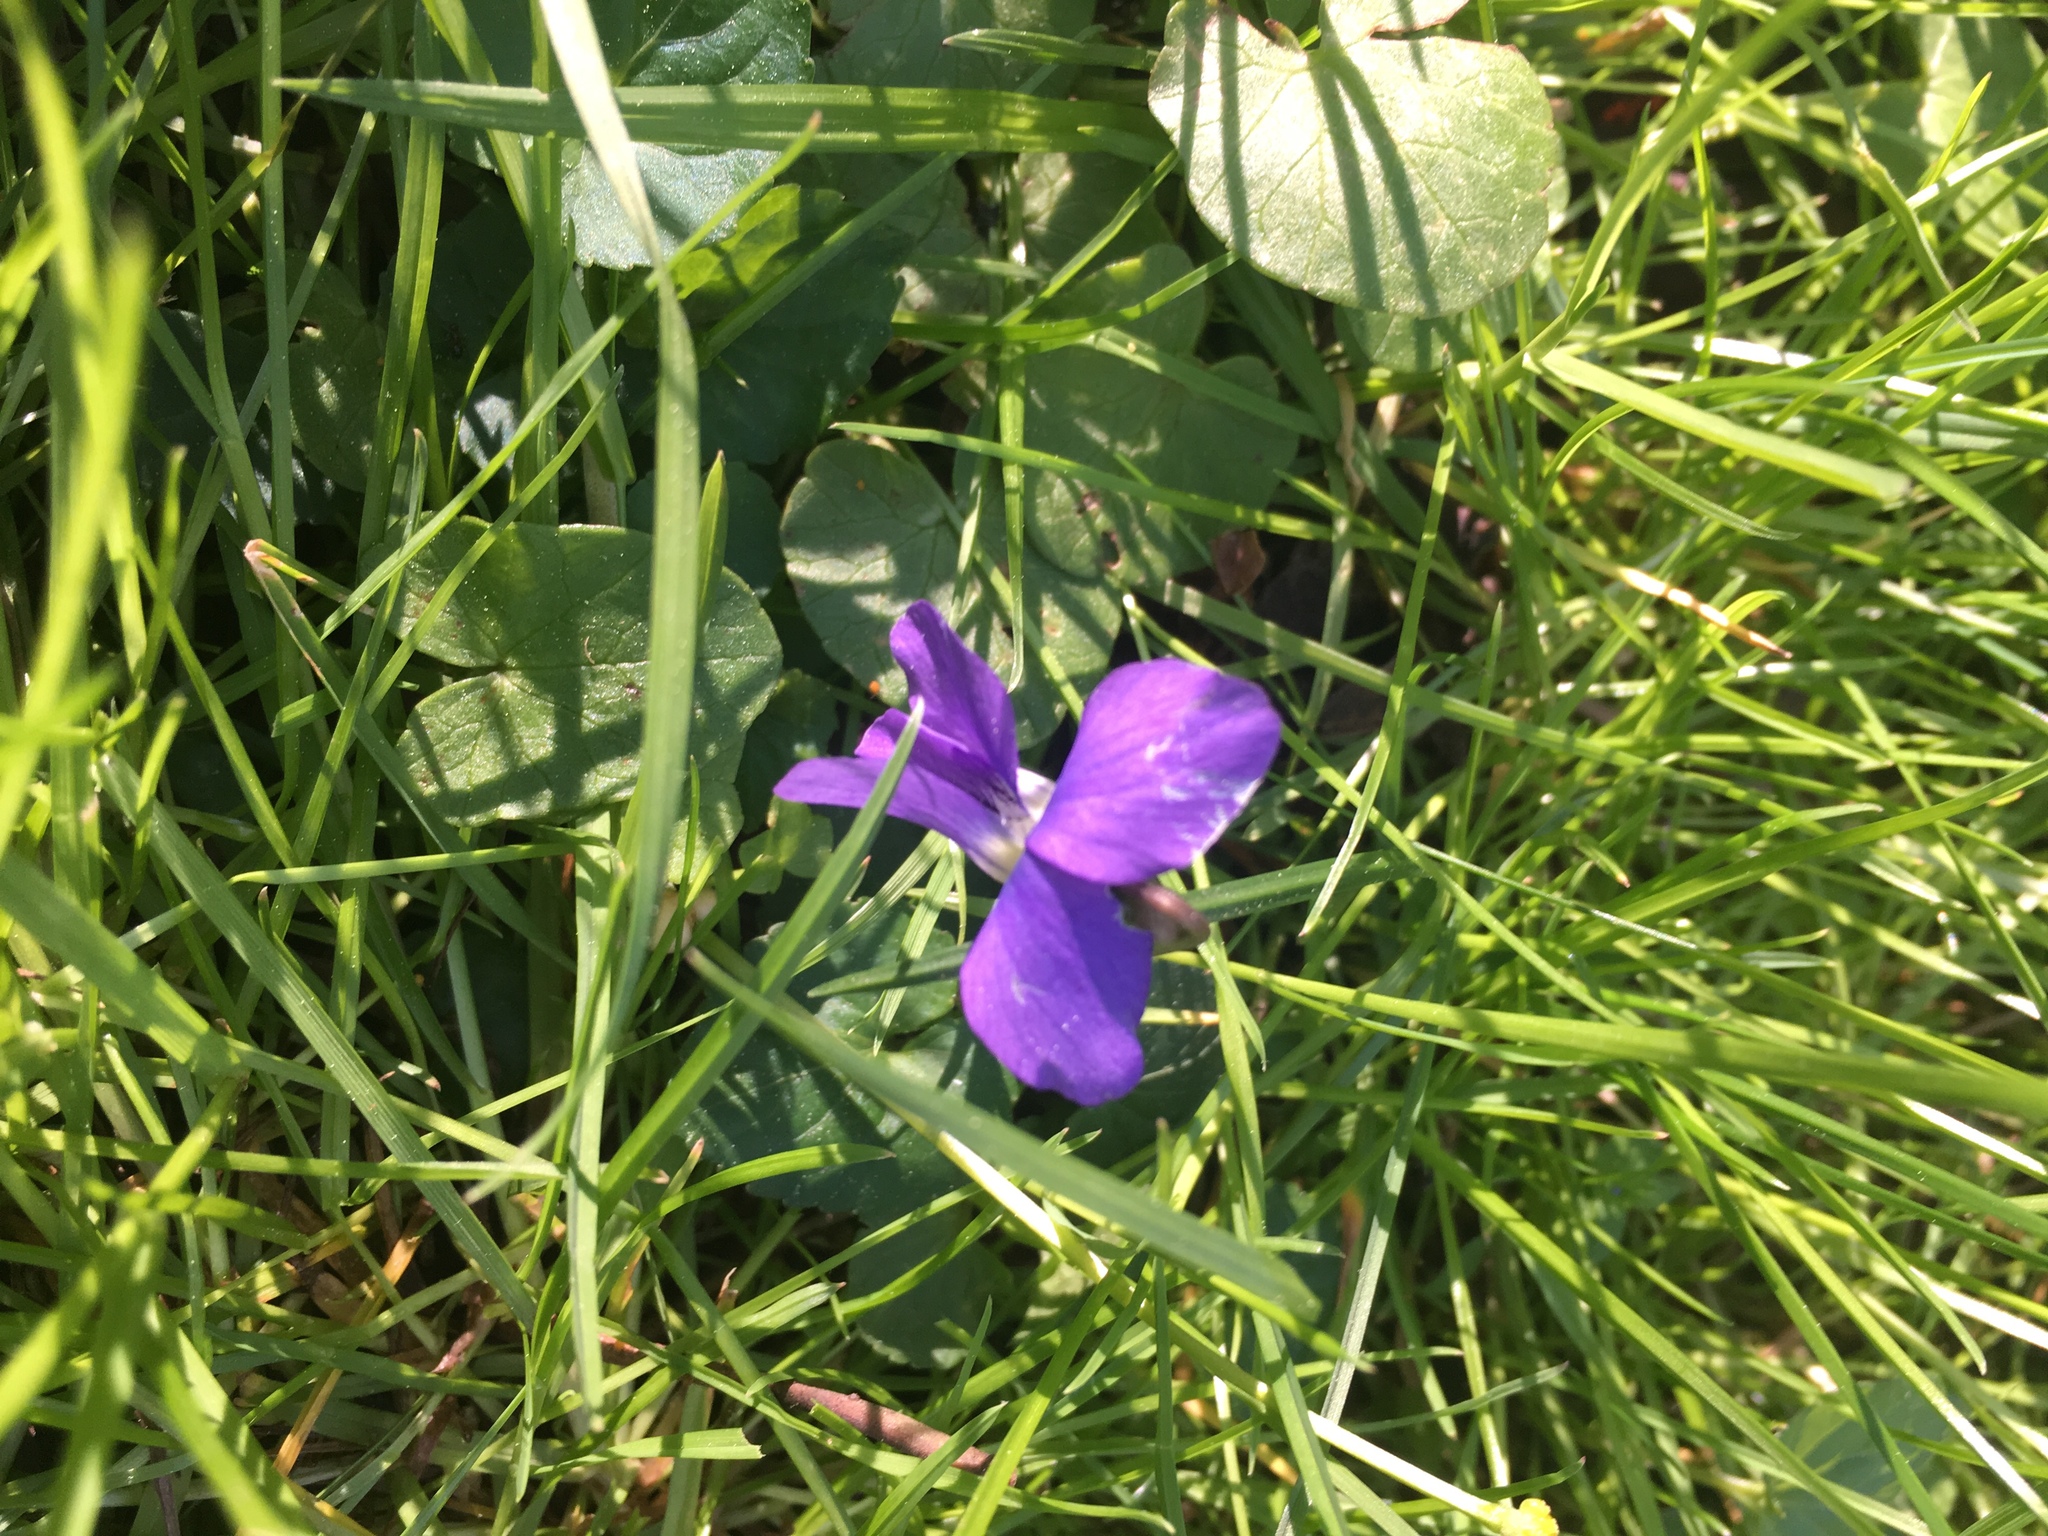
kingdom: Plantae
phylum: Tracheophyta
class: Magnoliopsida
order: Malpighiales
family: Violaceae
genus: Viola
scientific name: Viola sororia
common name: Dooryard violet
